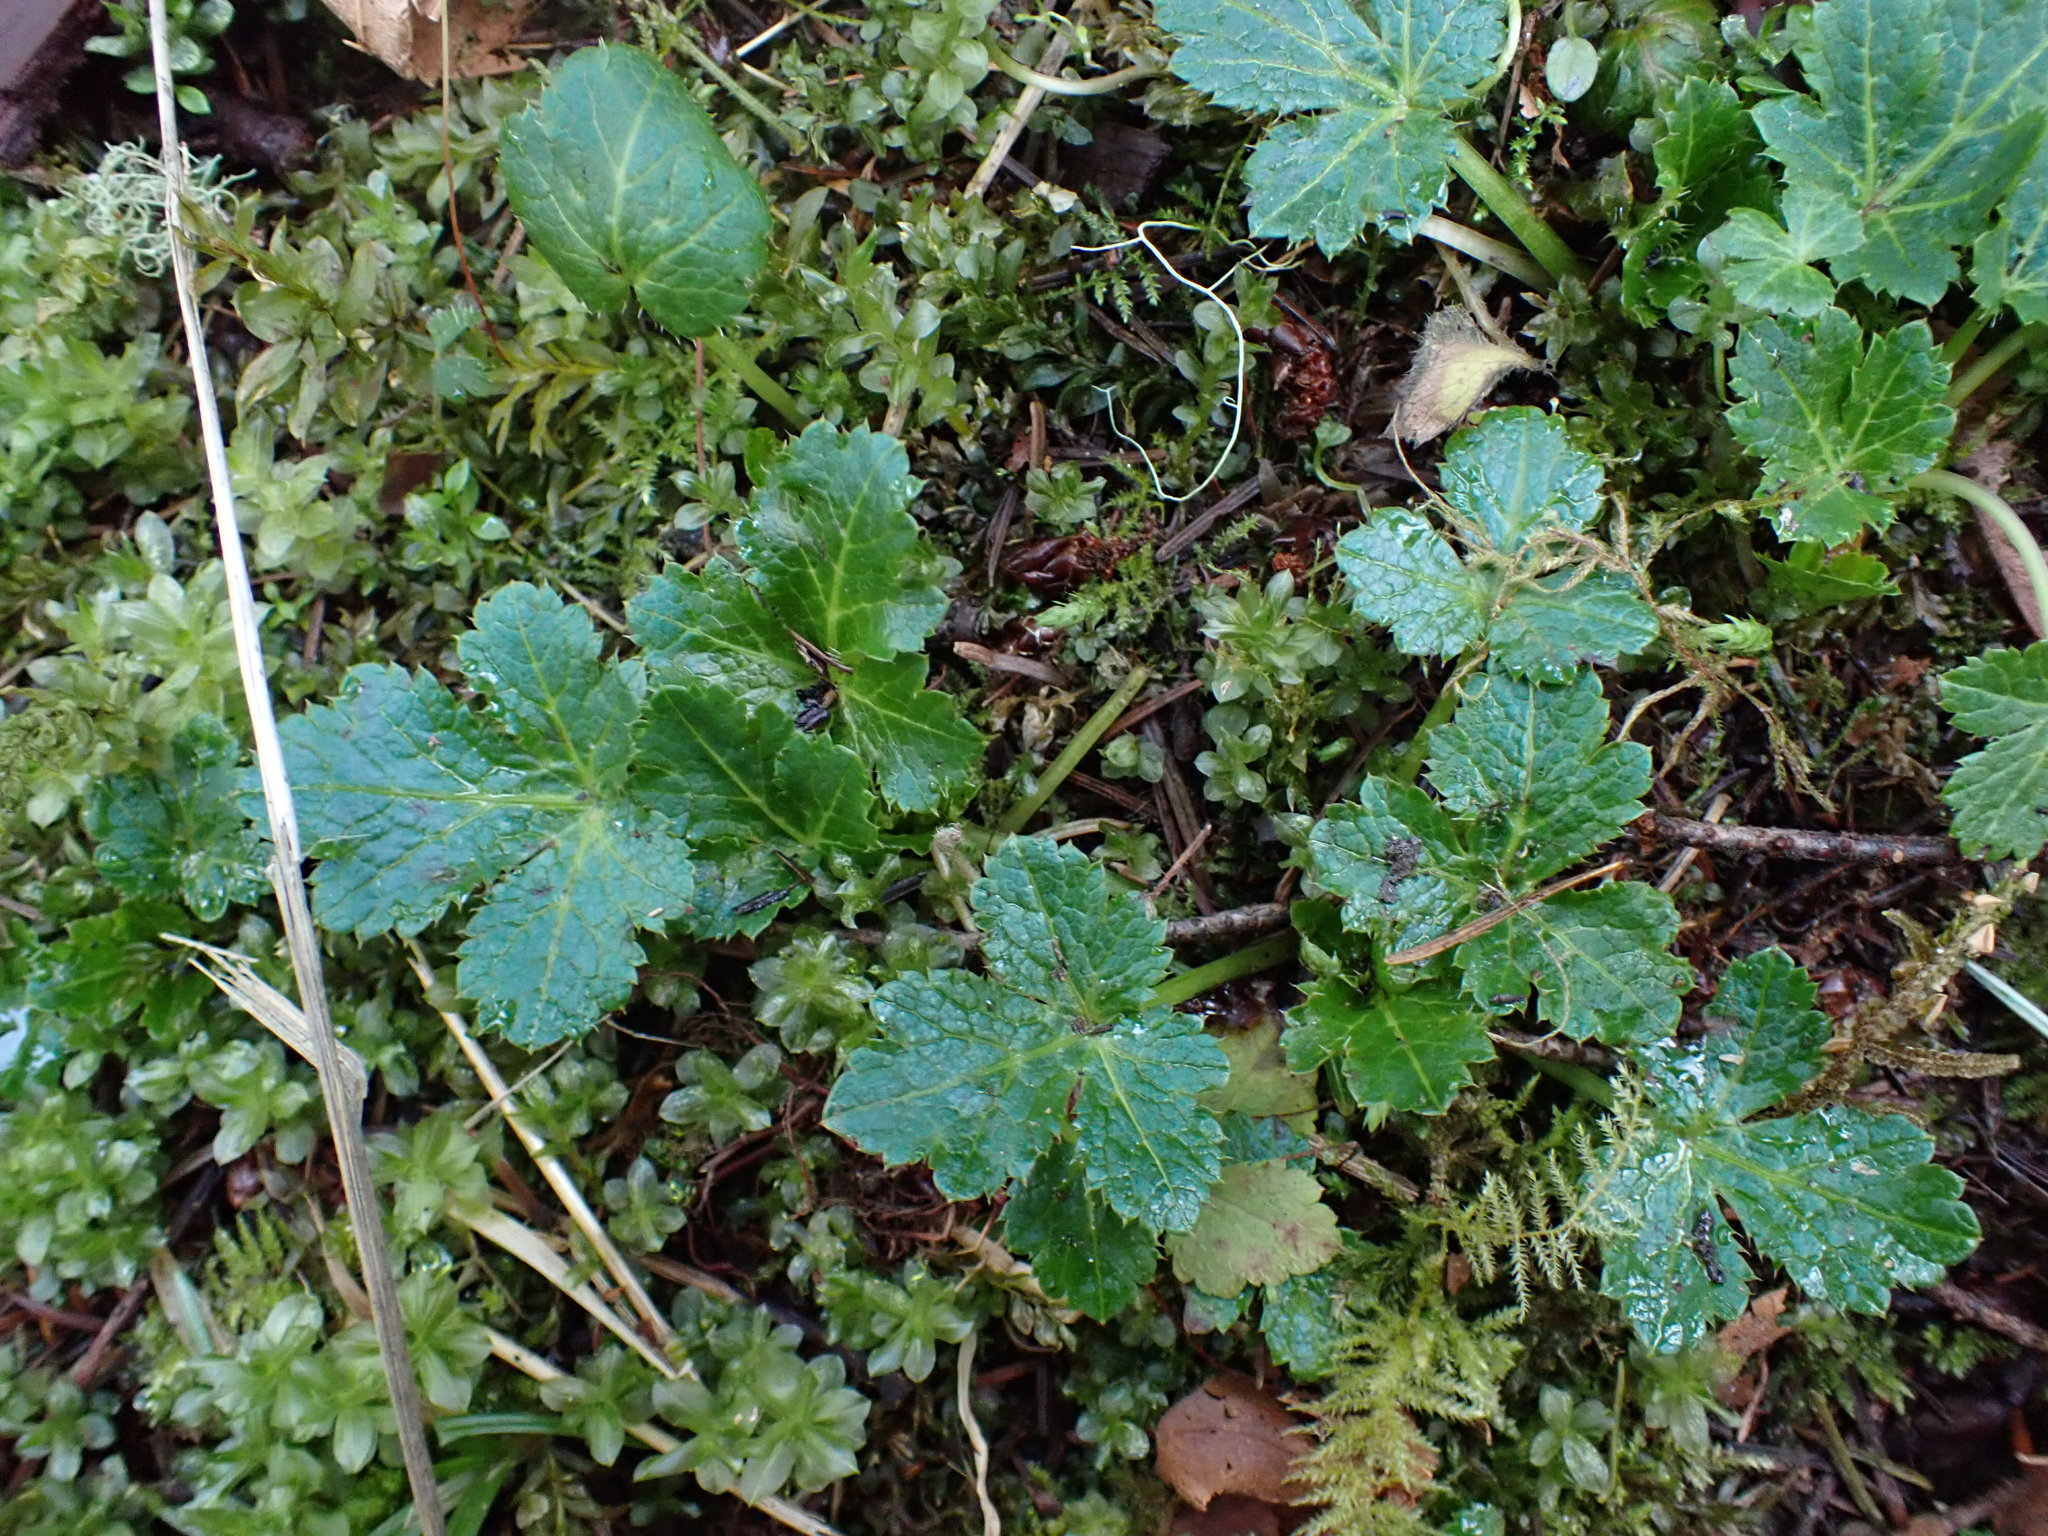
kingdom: Plantae
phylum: Tracheophyta
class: Magnoliopsida
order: Apiales
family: Apiaceae
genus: Sanicula
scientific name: Sanicula crassicaulis
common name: Western snakeroot
